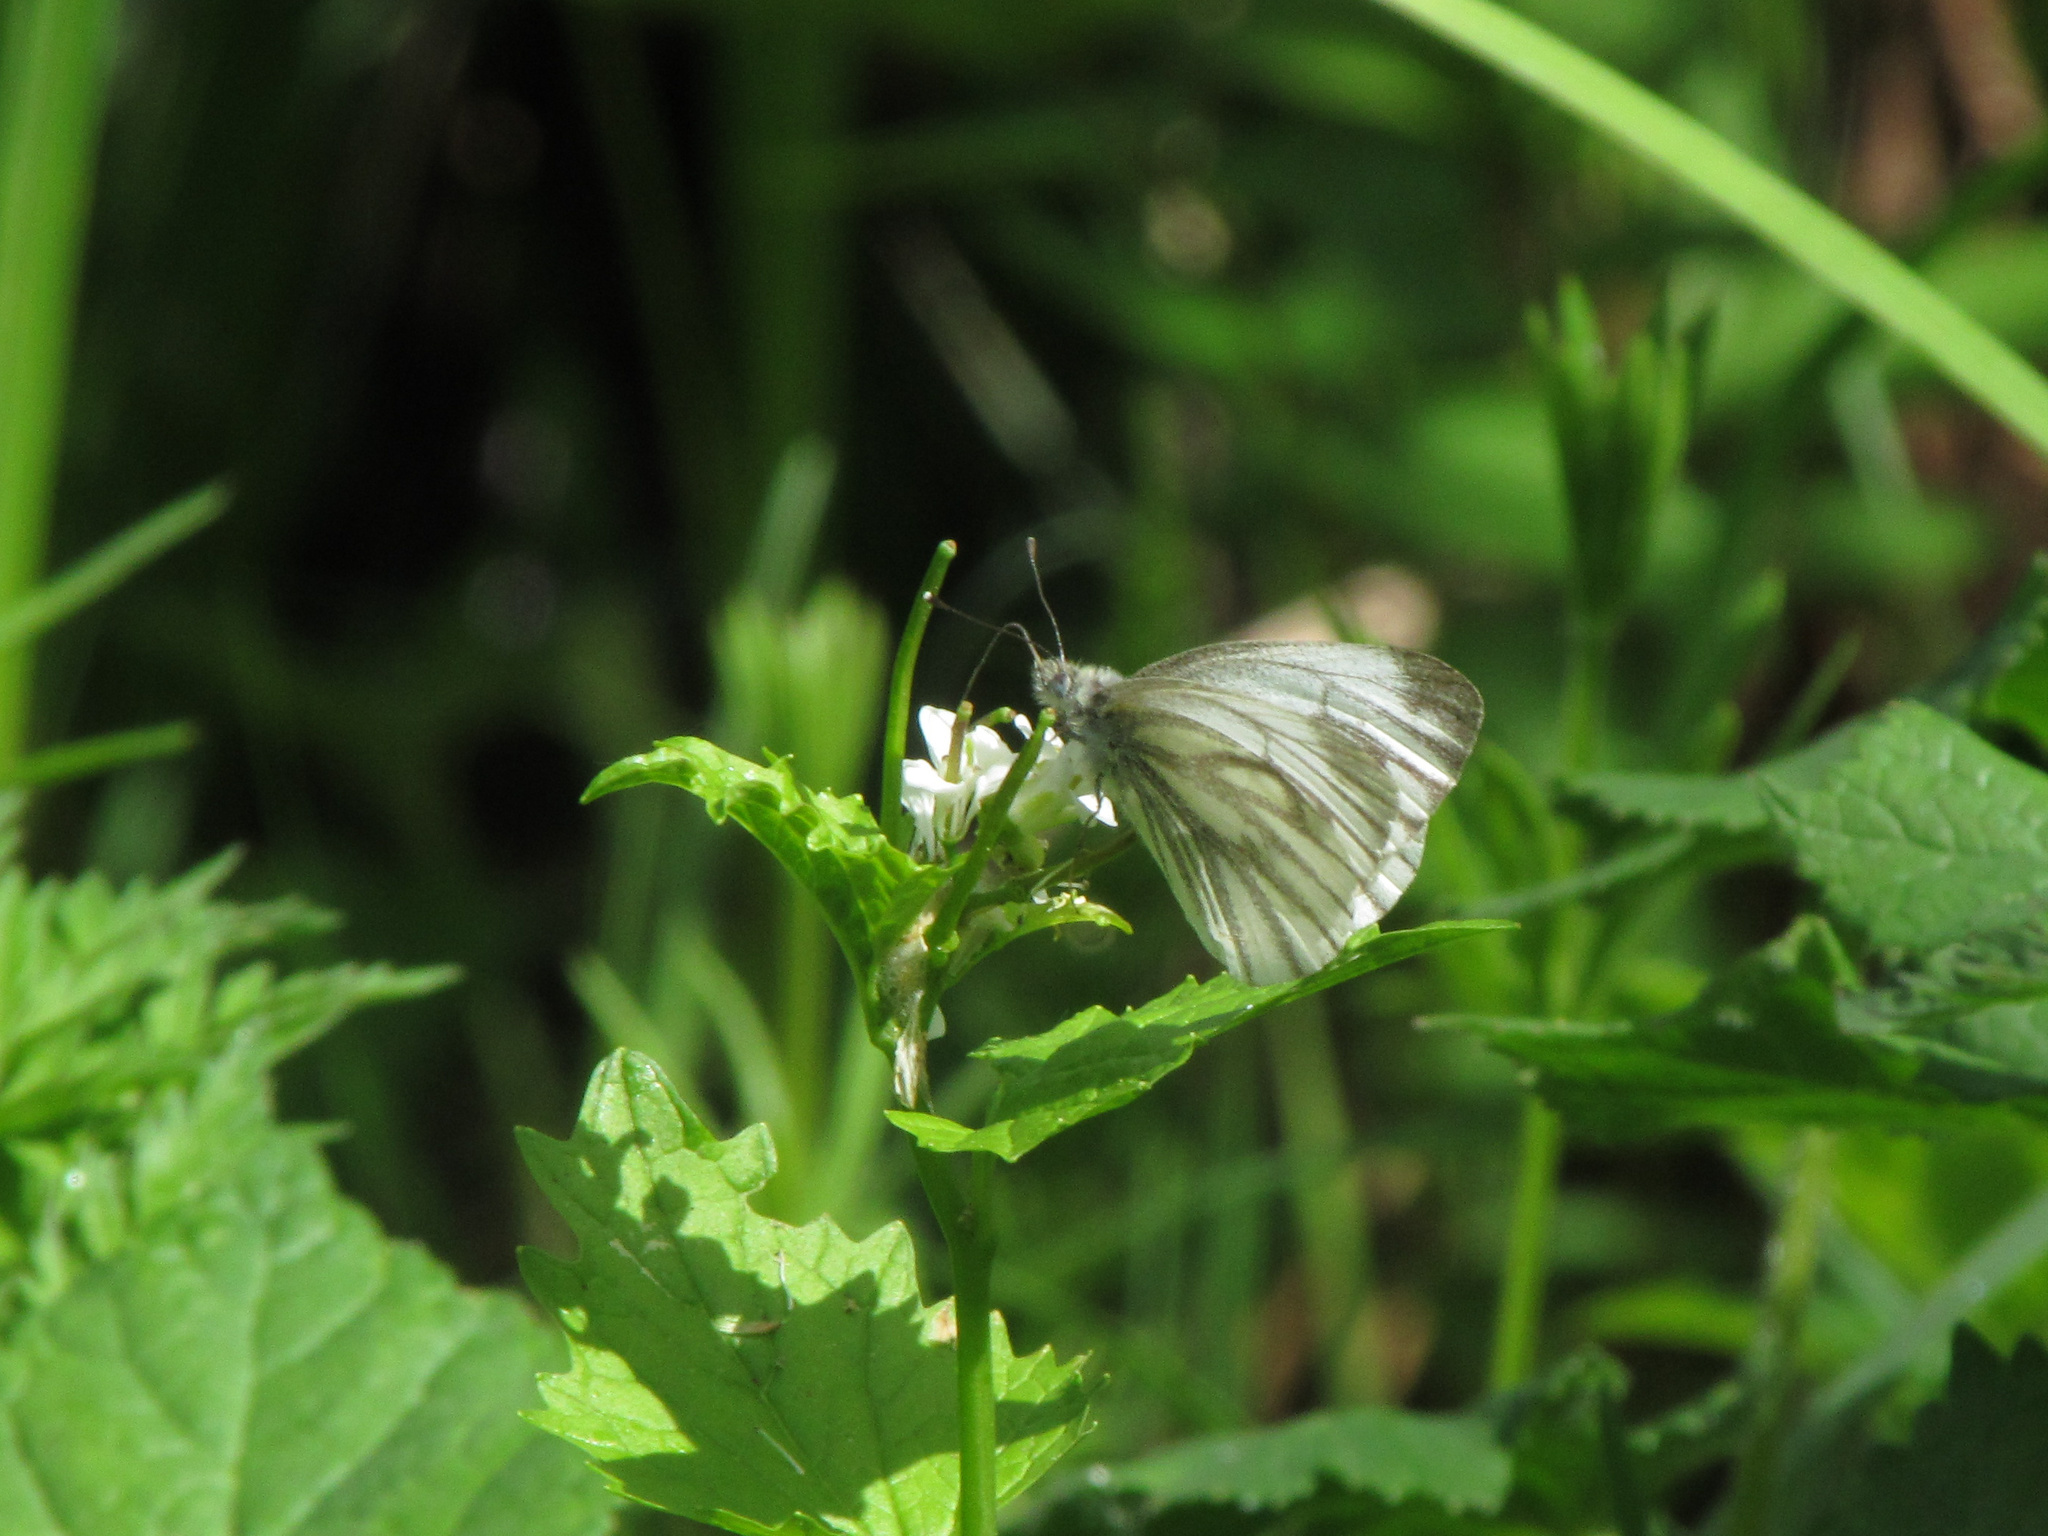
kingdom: Animalia
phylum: Arthropoda
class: Insecta
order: Lepidoptera
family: Pieridae
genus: Pieris
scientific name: Pieris napi
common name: Green-veined white
